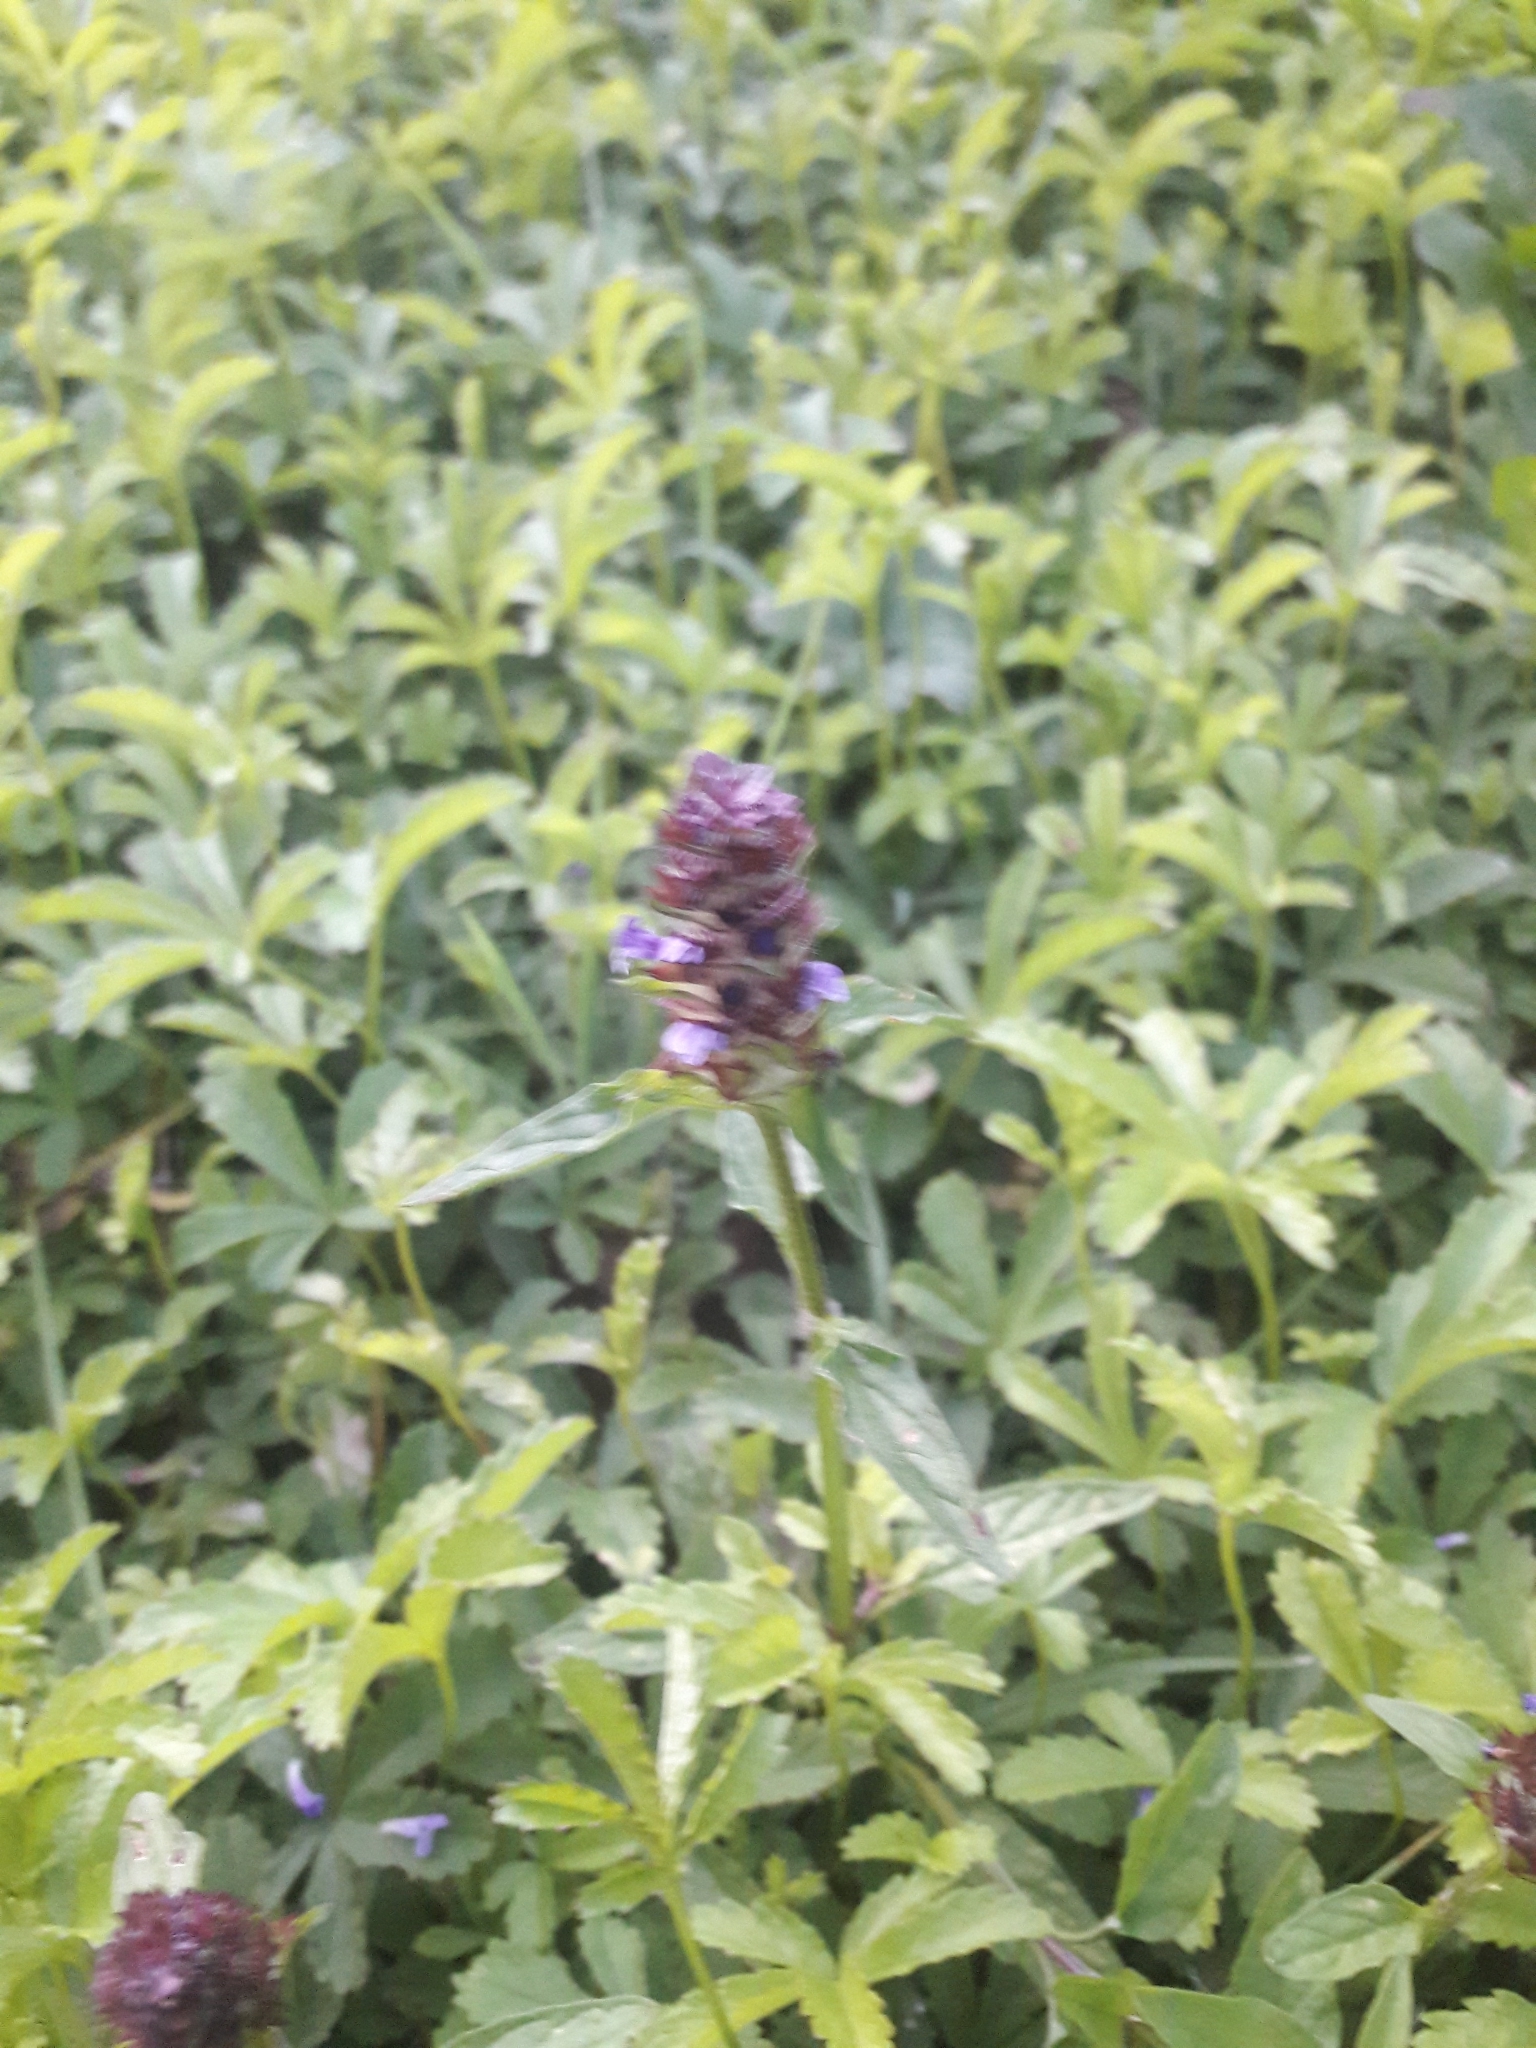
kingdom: Plantae
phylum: Tracheophyta
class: Magnoliopsida
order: Lamiales
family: Lamiaceae
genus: Prunella
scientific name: Prunella vulgaris
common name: Heal-all
